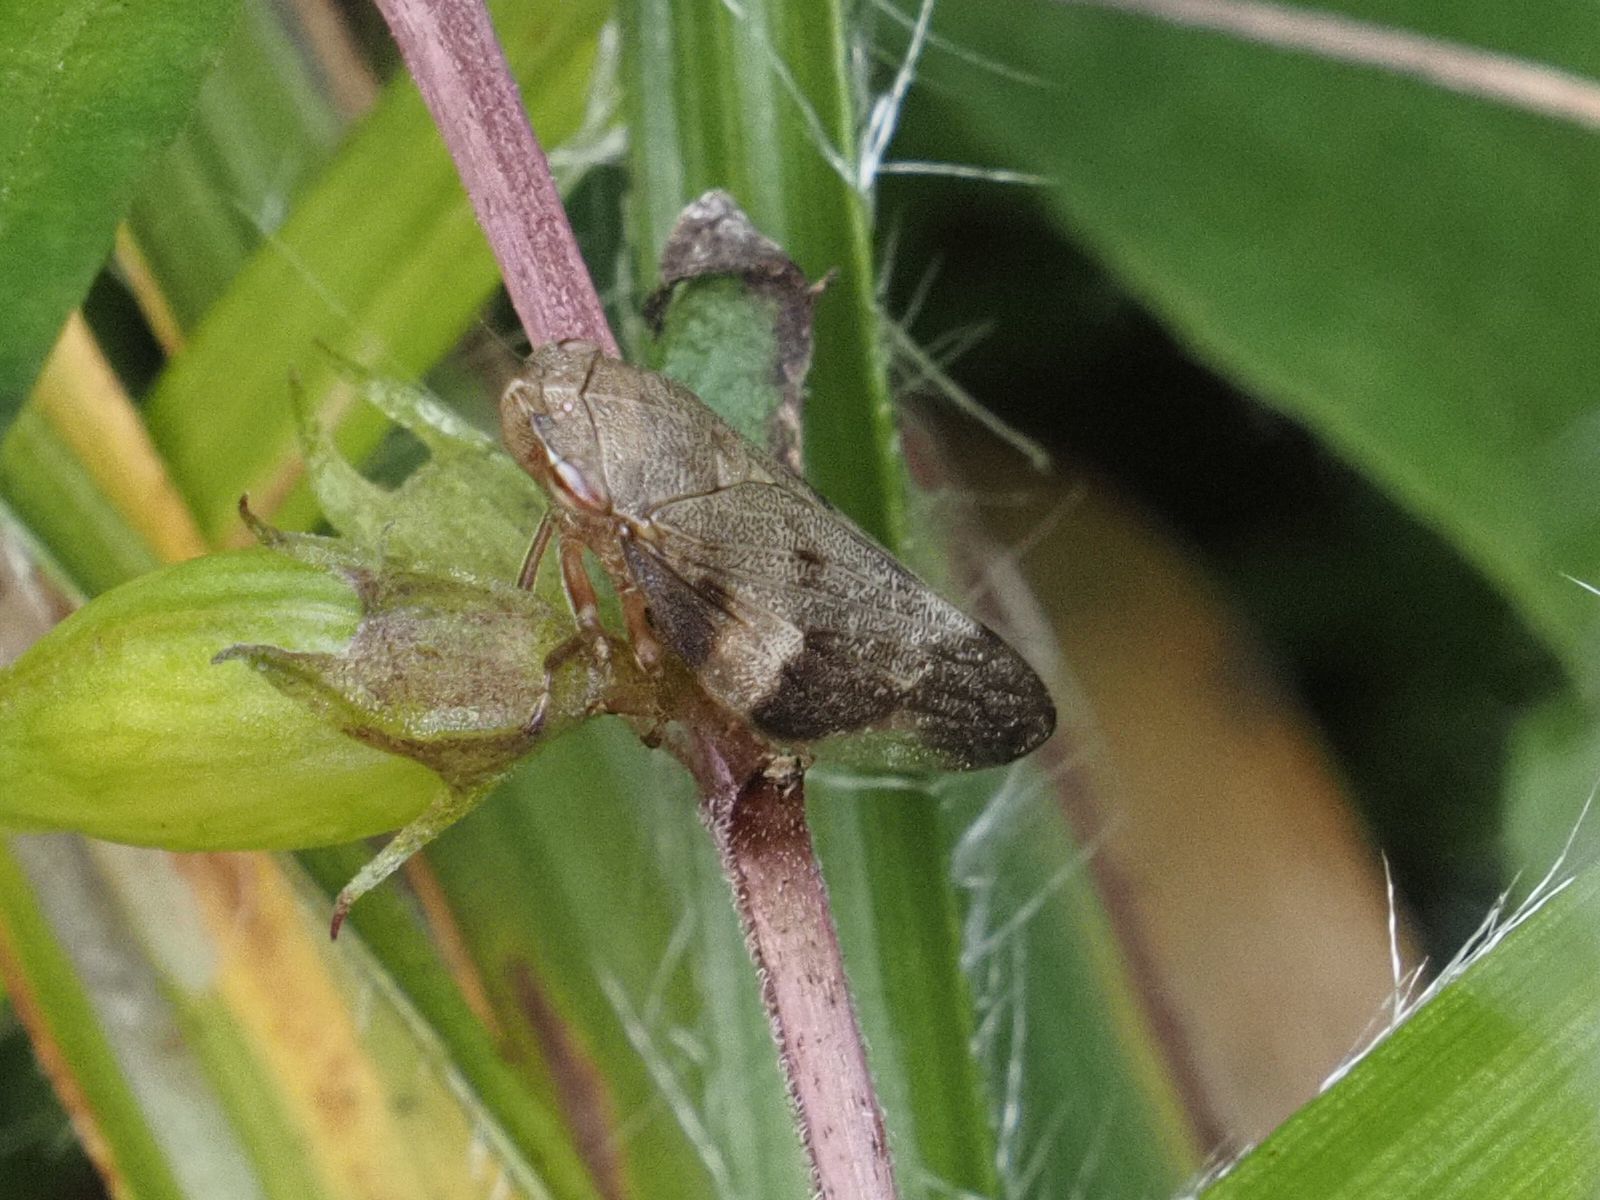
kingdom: Animalia
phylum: Arthropoda
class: Insecta
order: Hemiptera
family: Aphrophoridae
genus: Aphrophora
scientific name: Aphrophora alni
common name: European alder spittlebug
